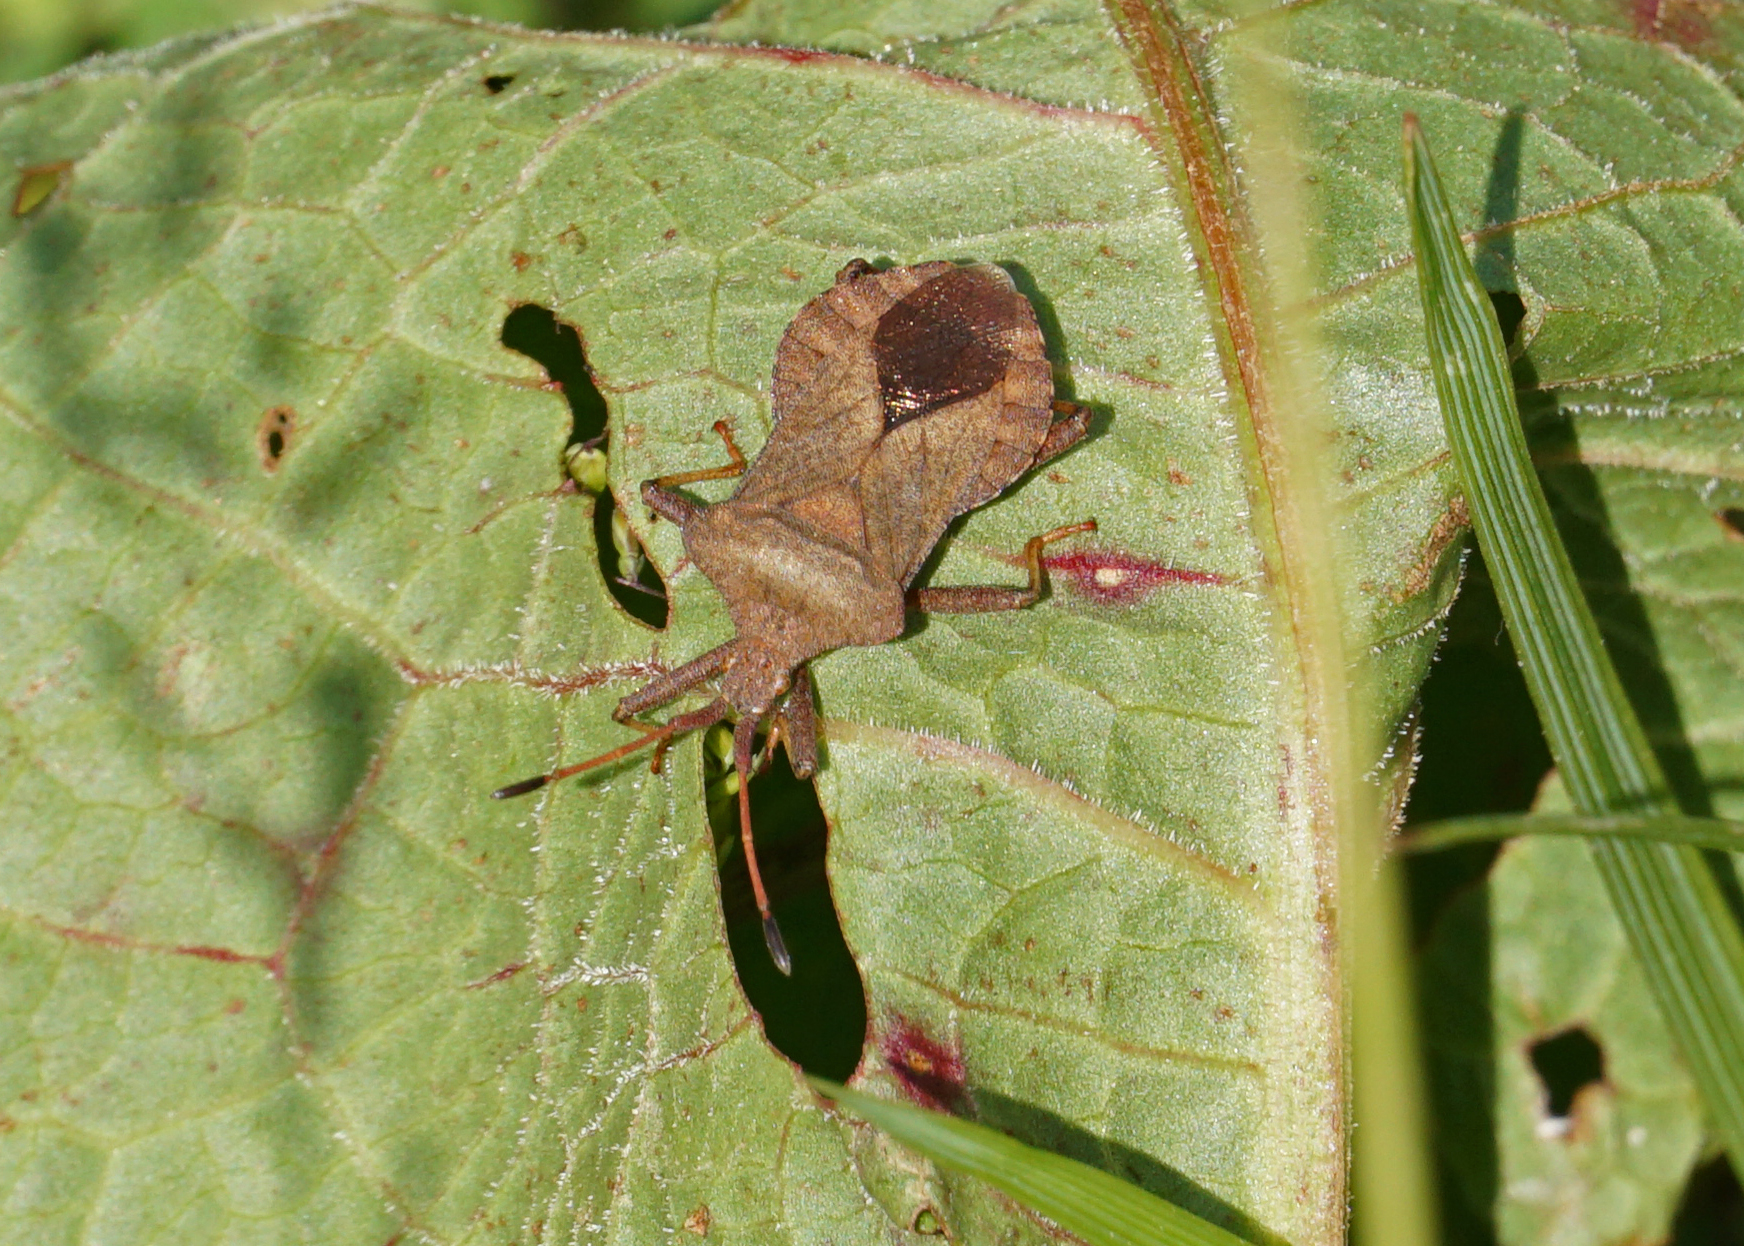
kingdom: Animalia
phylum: Arthropoda
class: Insecta
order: Hemiptera
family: Coreidae
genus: Coreus
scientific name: Coreus marginatus
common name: Dock bug
